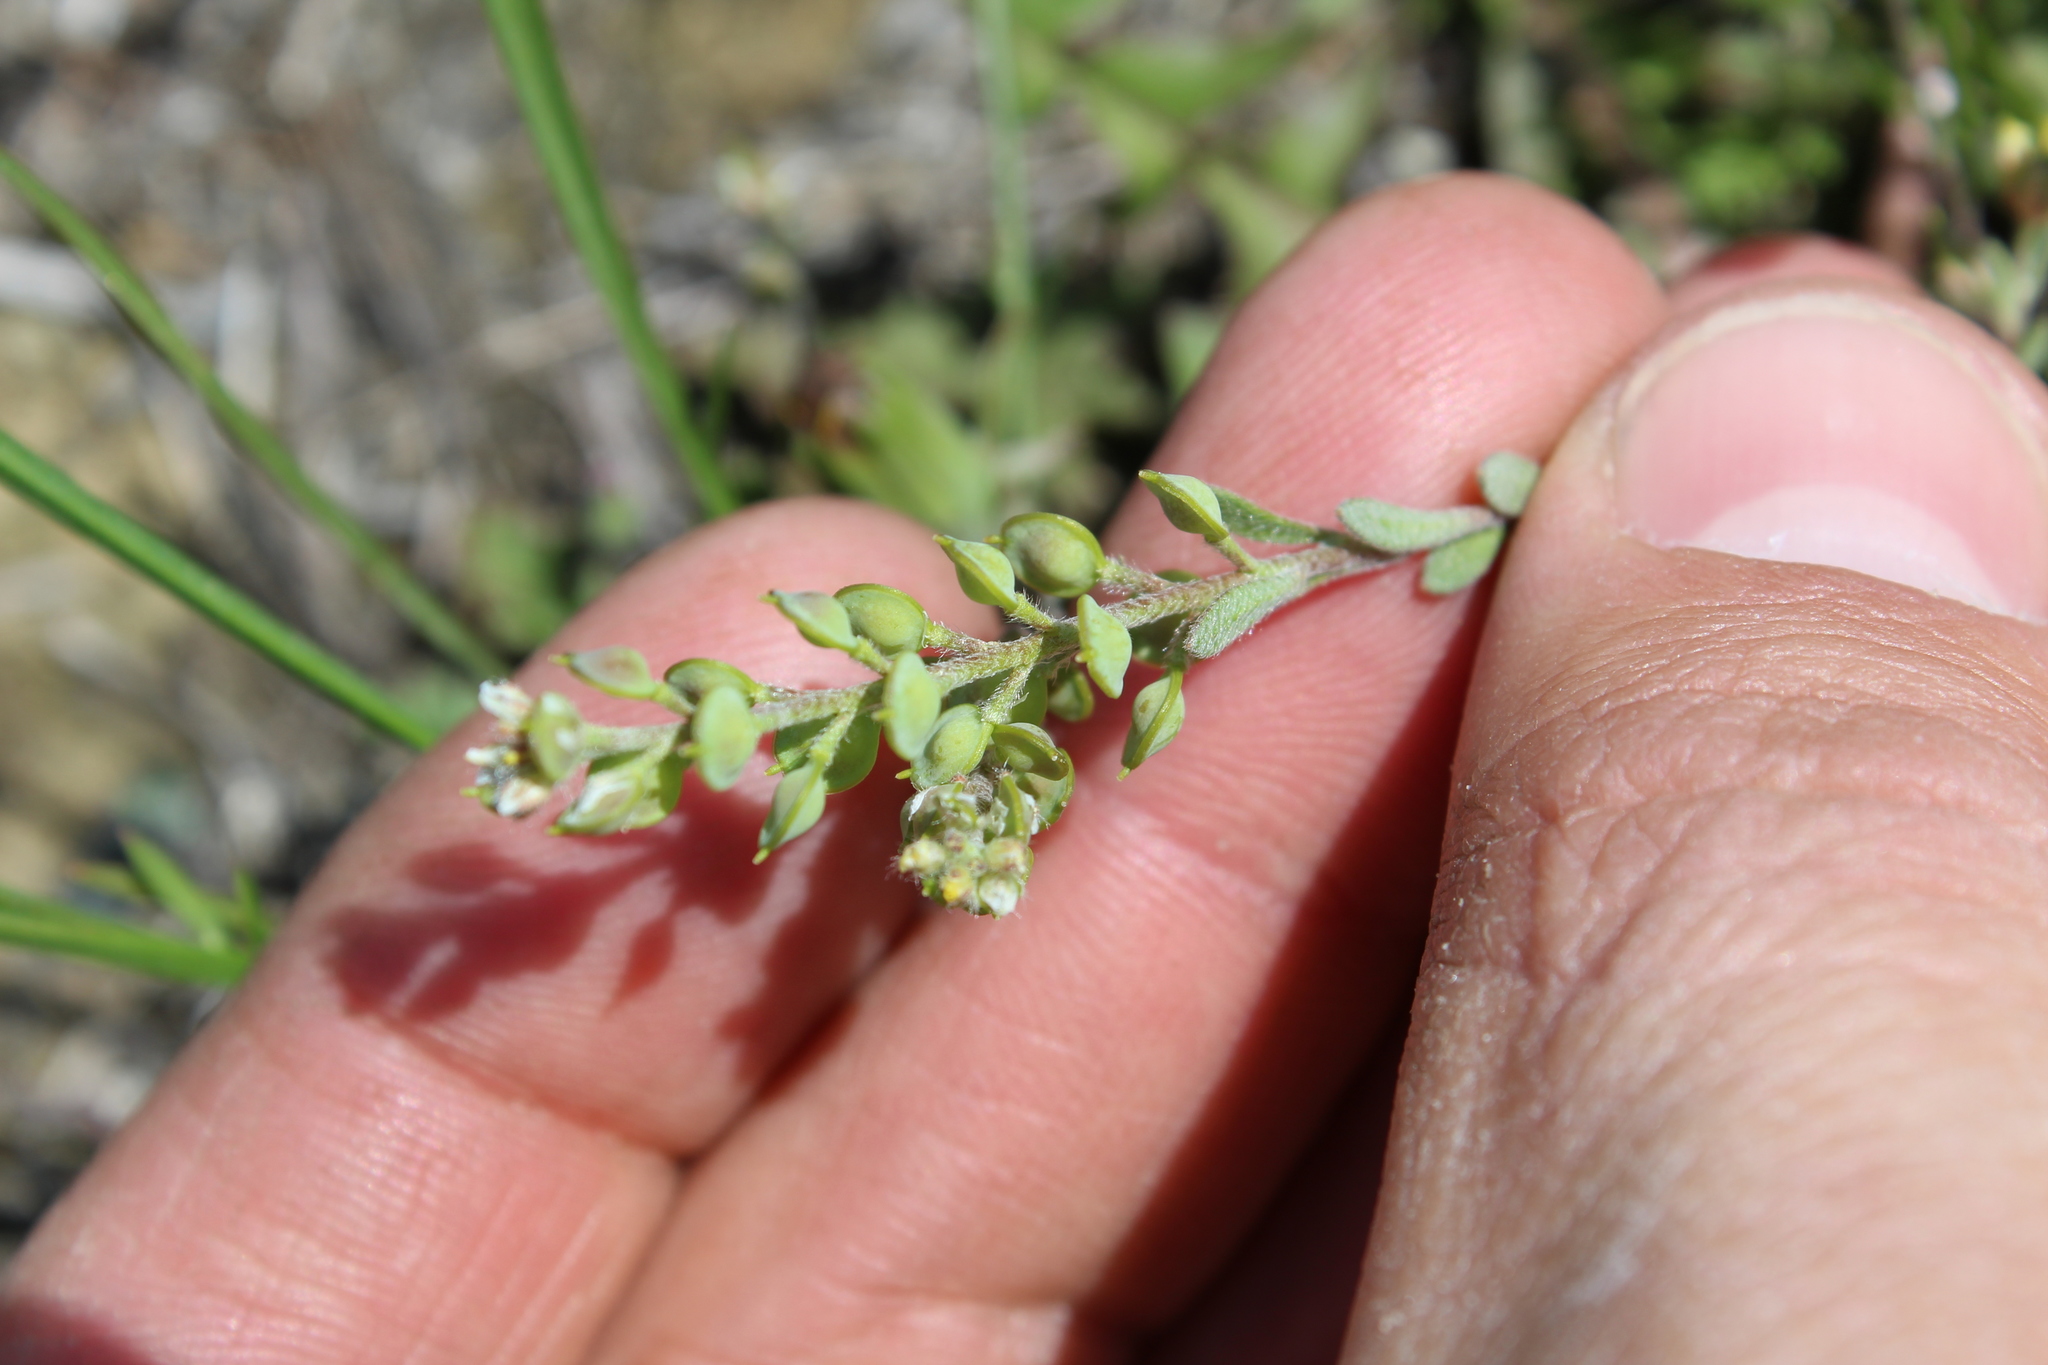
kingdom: Plantae
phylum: Tracheophyta
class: Magnoliopsida
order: Brassicales
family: Brassicaceae
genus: Alyssum
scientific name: Alyssum turkestanicum
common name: Desert alyssum
